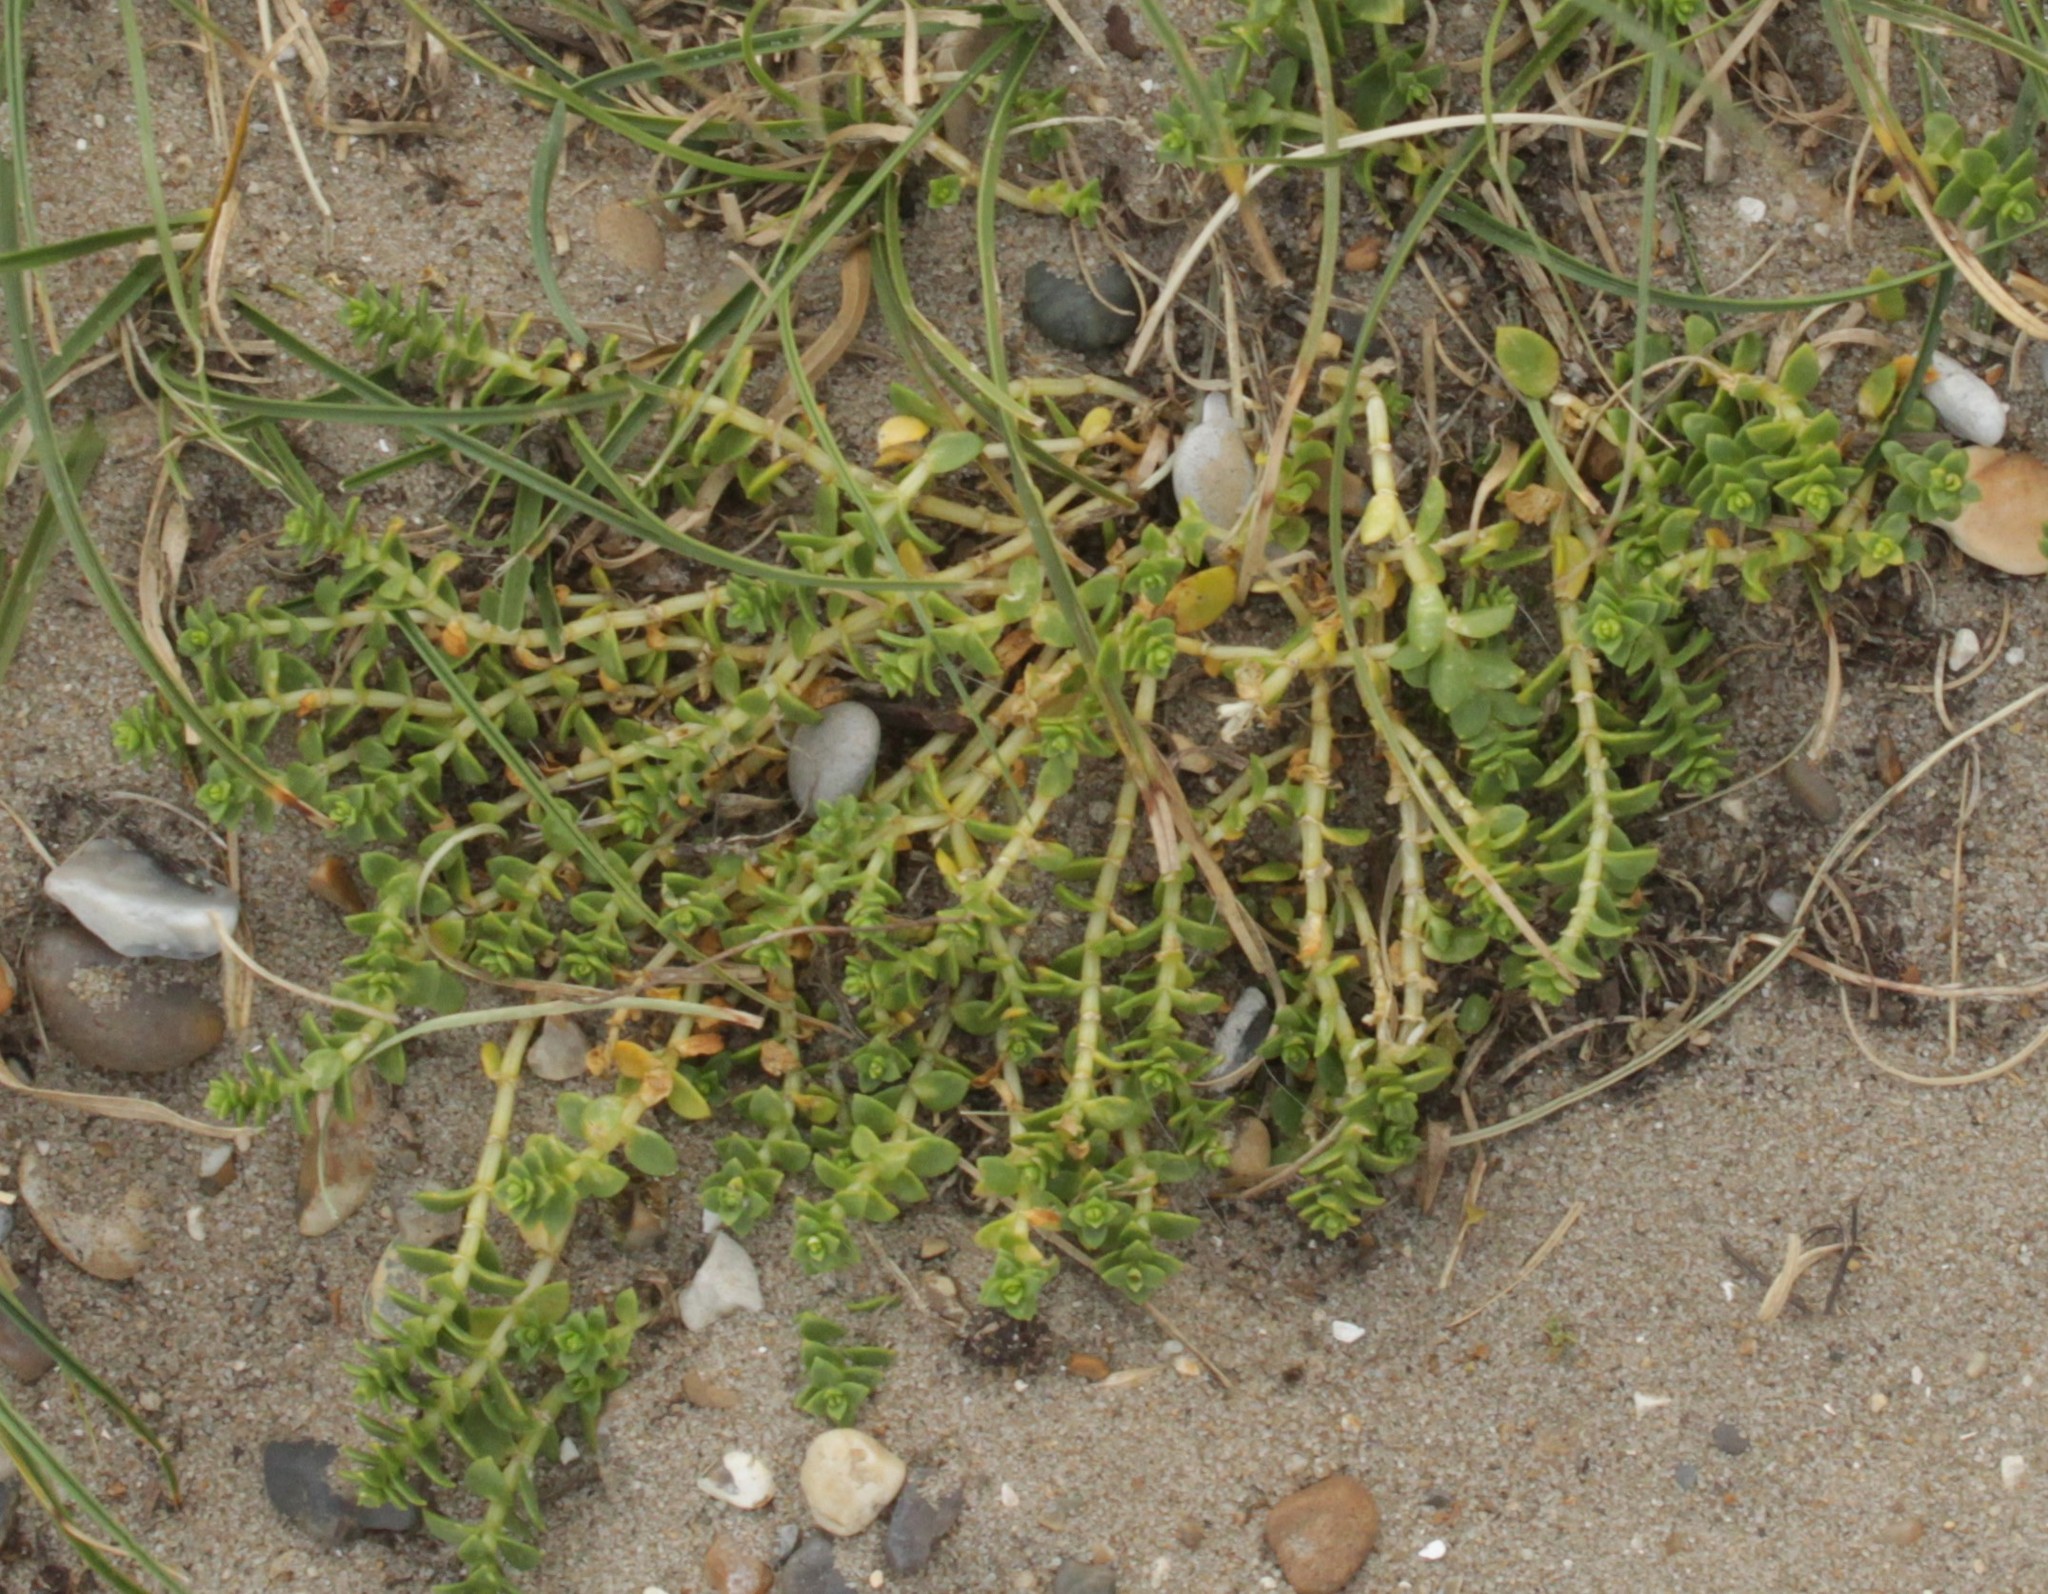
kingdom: Plantae
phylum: Tracheophyta
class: Magnoliopsida
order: Caryophyllales
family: Caryophyllaceae
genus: Honckenya
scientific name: Honckenya peploides
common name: Sea sandwort
